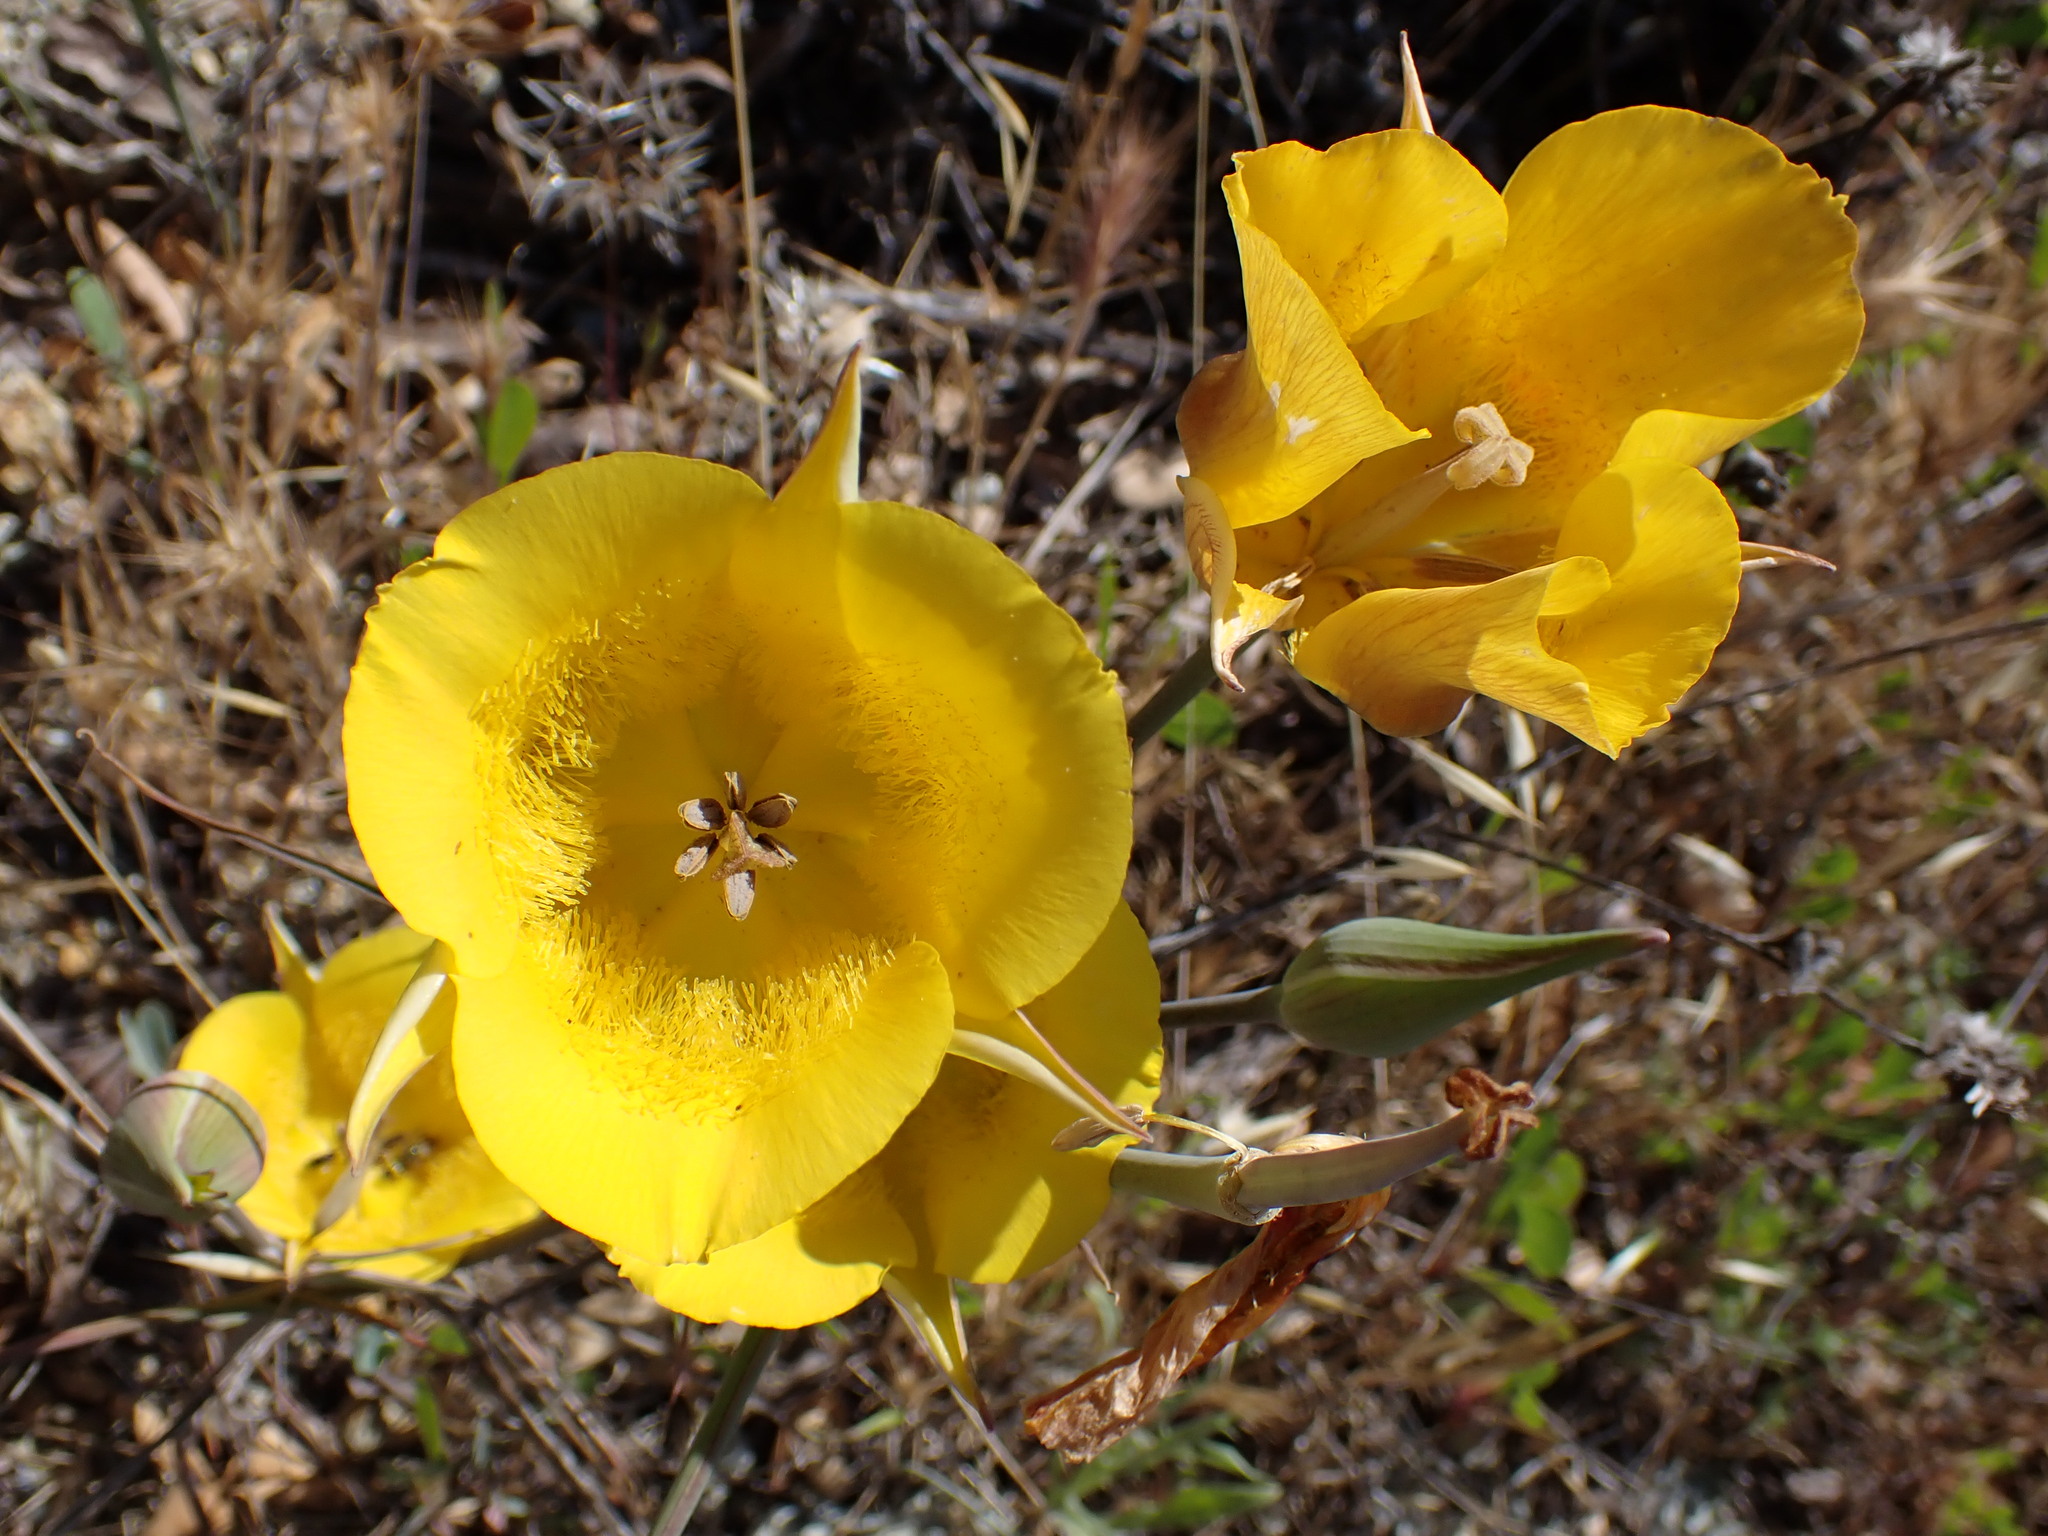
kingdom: Plantae
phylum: Tracheophyta
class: Liliopsida
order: Liliales
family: Liliaceae
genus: Calochortus
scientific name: Calochortus clavatus
